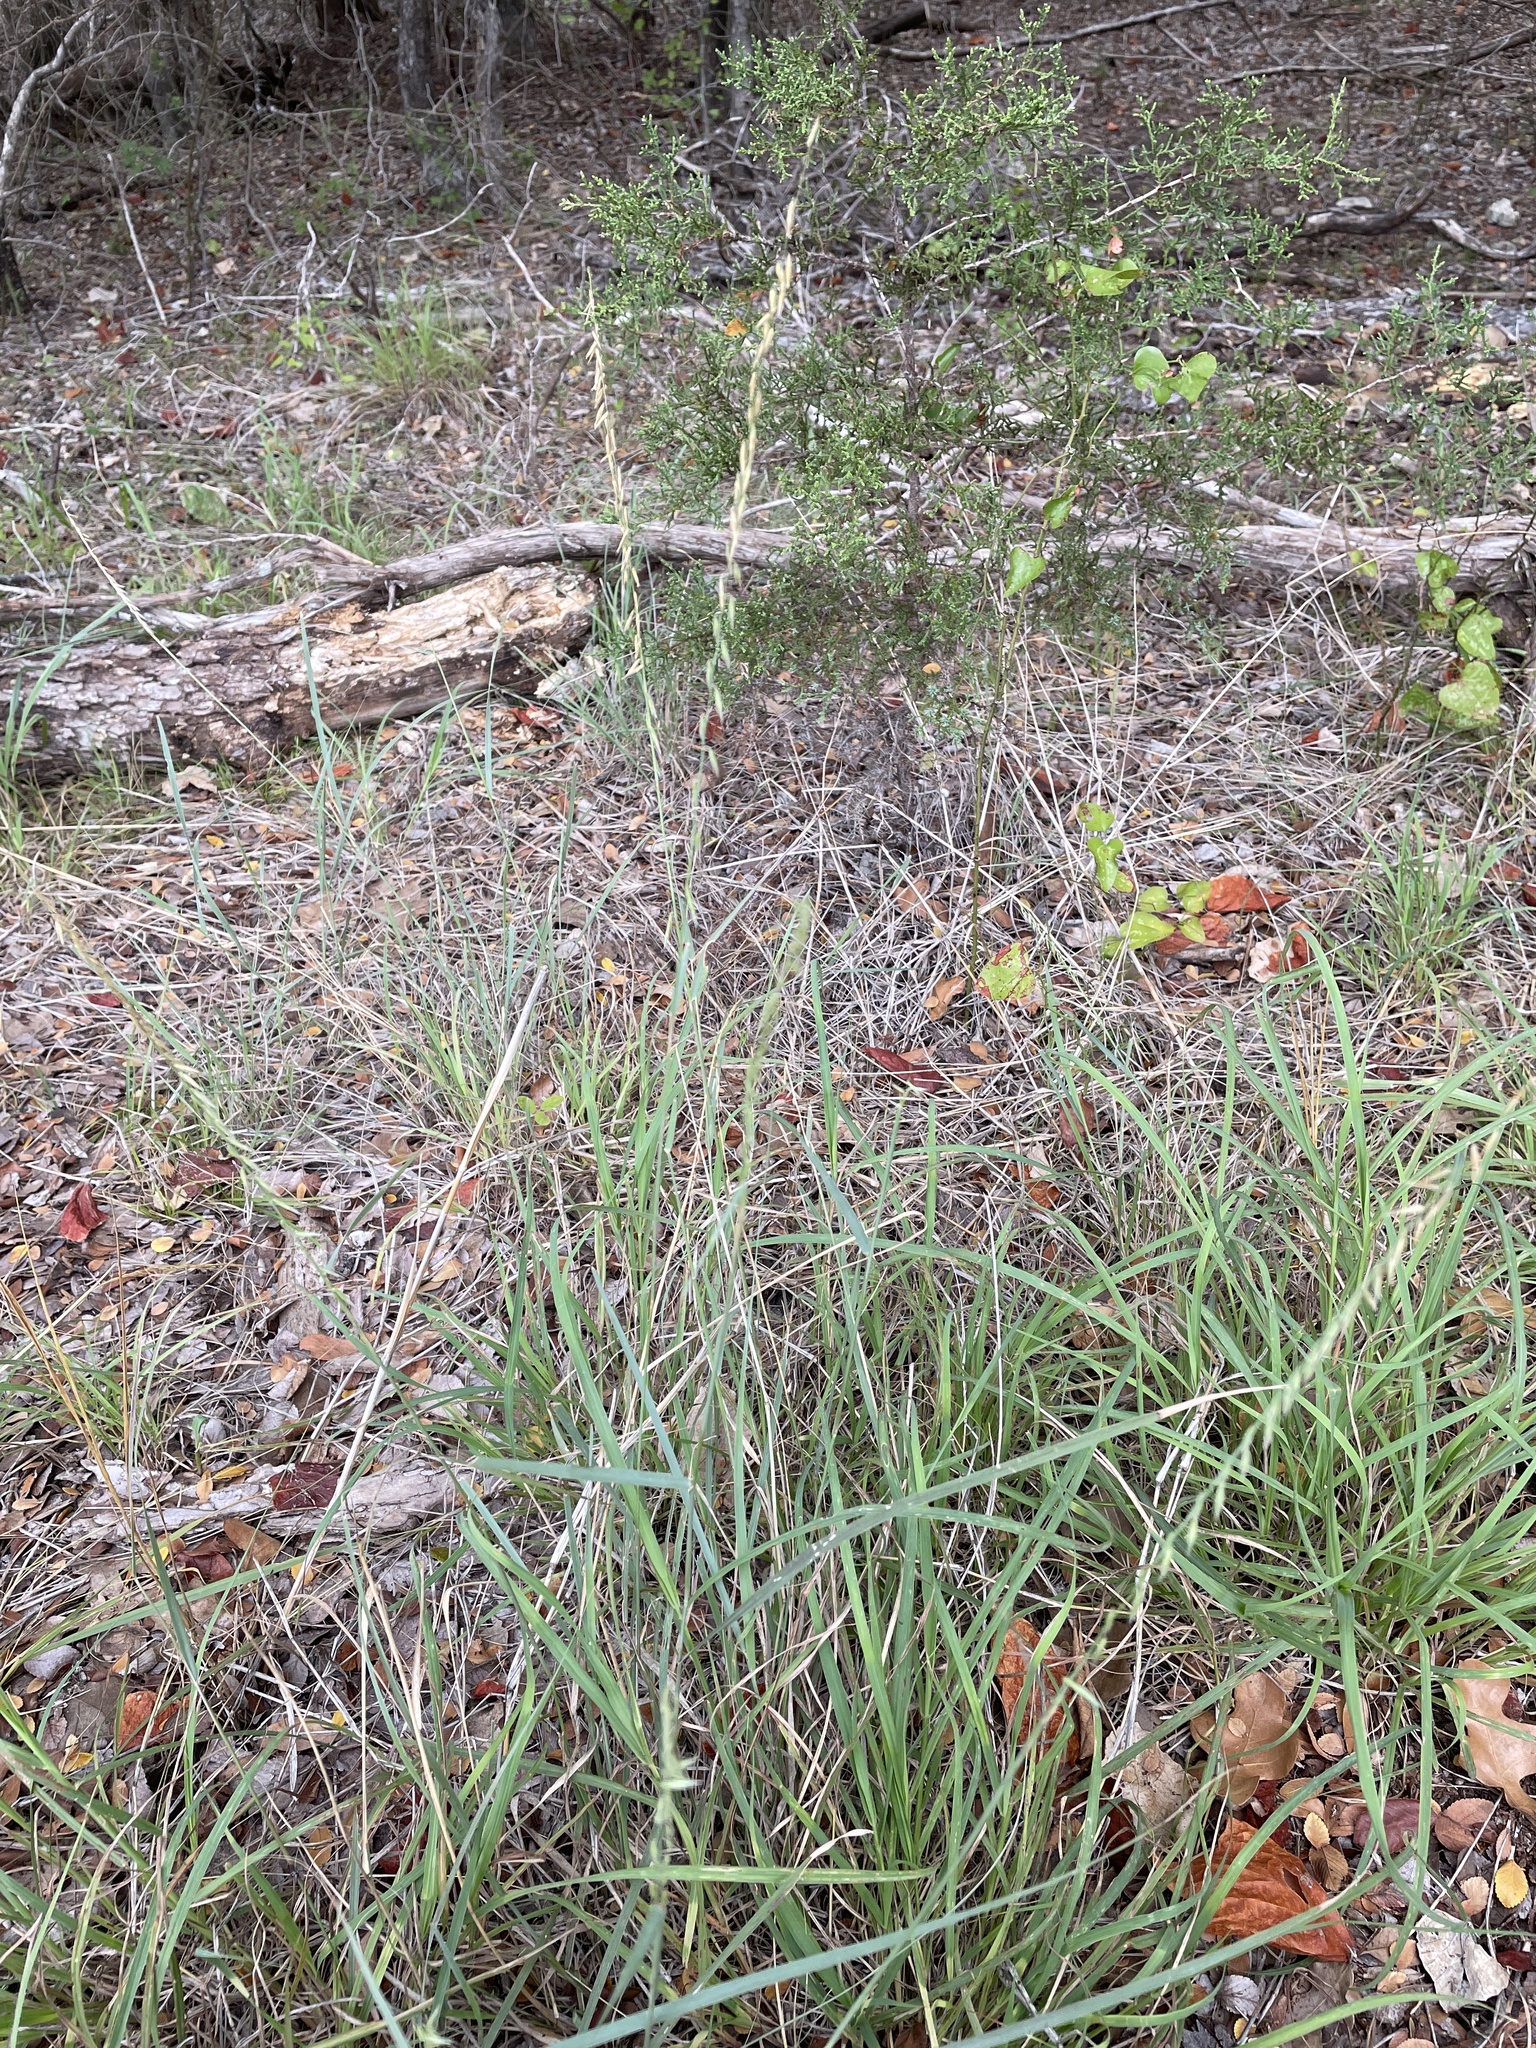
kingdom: Plantae
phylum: Tracheophyta
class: Liliopsida
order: Poales
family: Poaceae
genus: Bouteloua
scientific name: Bouteloua curtipendula
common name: Side-oats grama
